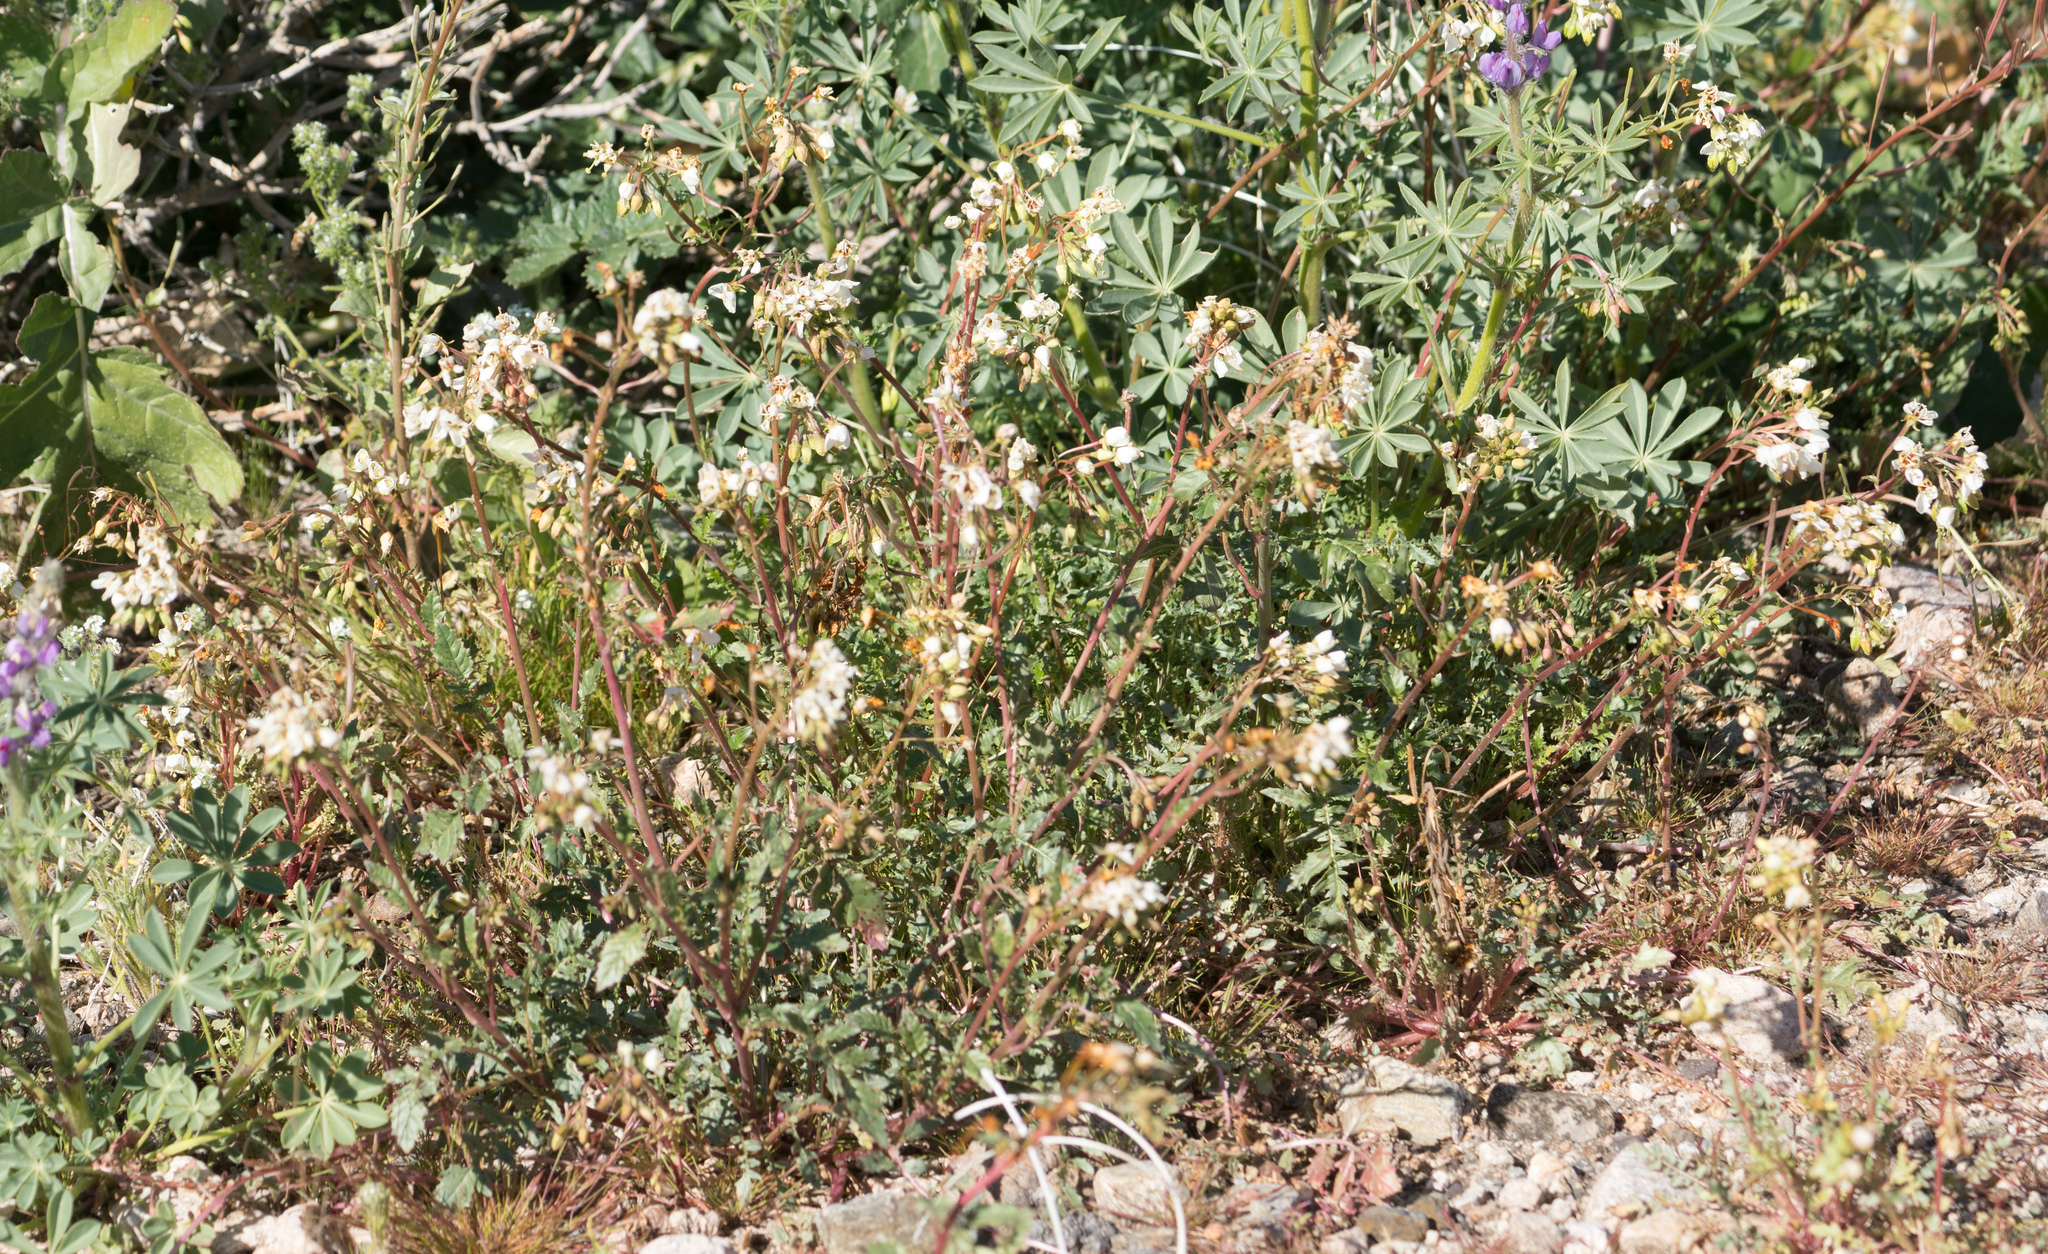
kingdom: Plantae
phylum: Tracheophyta
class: Magnoliopsida
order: Myrtales
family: Onagraceae
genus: Chylismia
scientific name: Chylismia claviformis
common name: Browneyes
